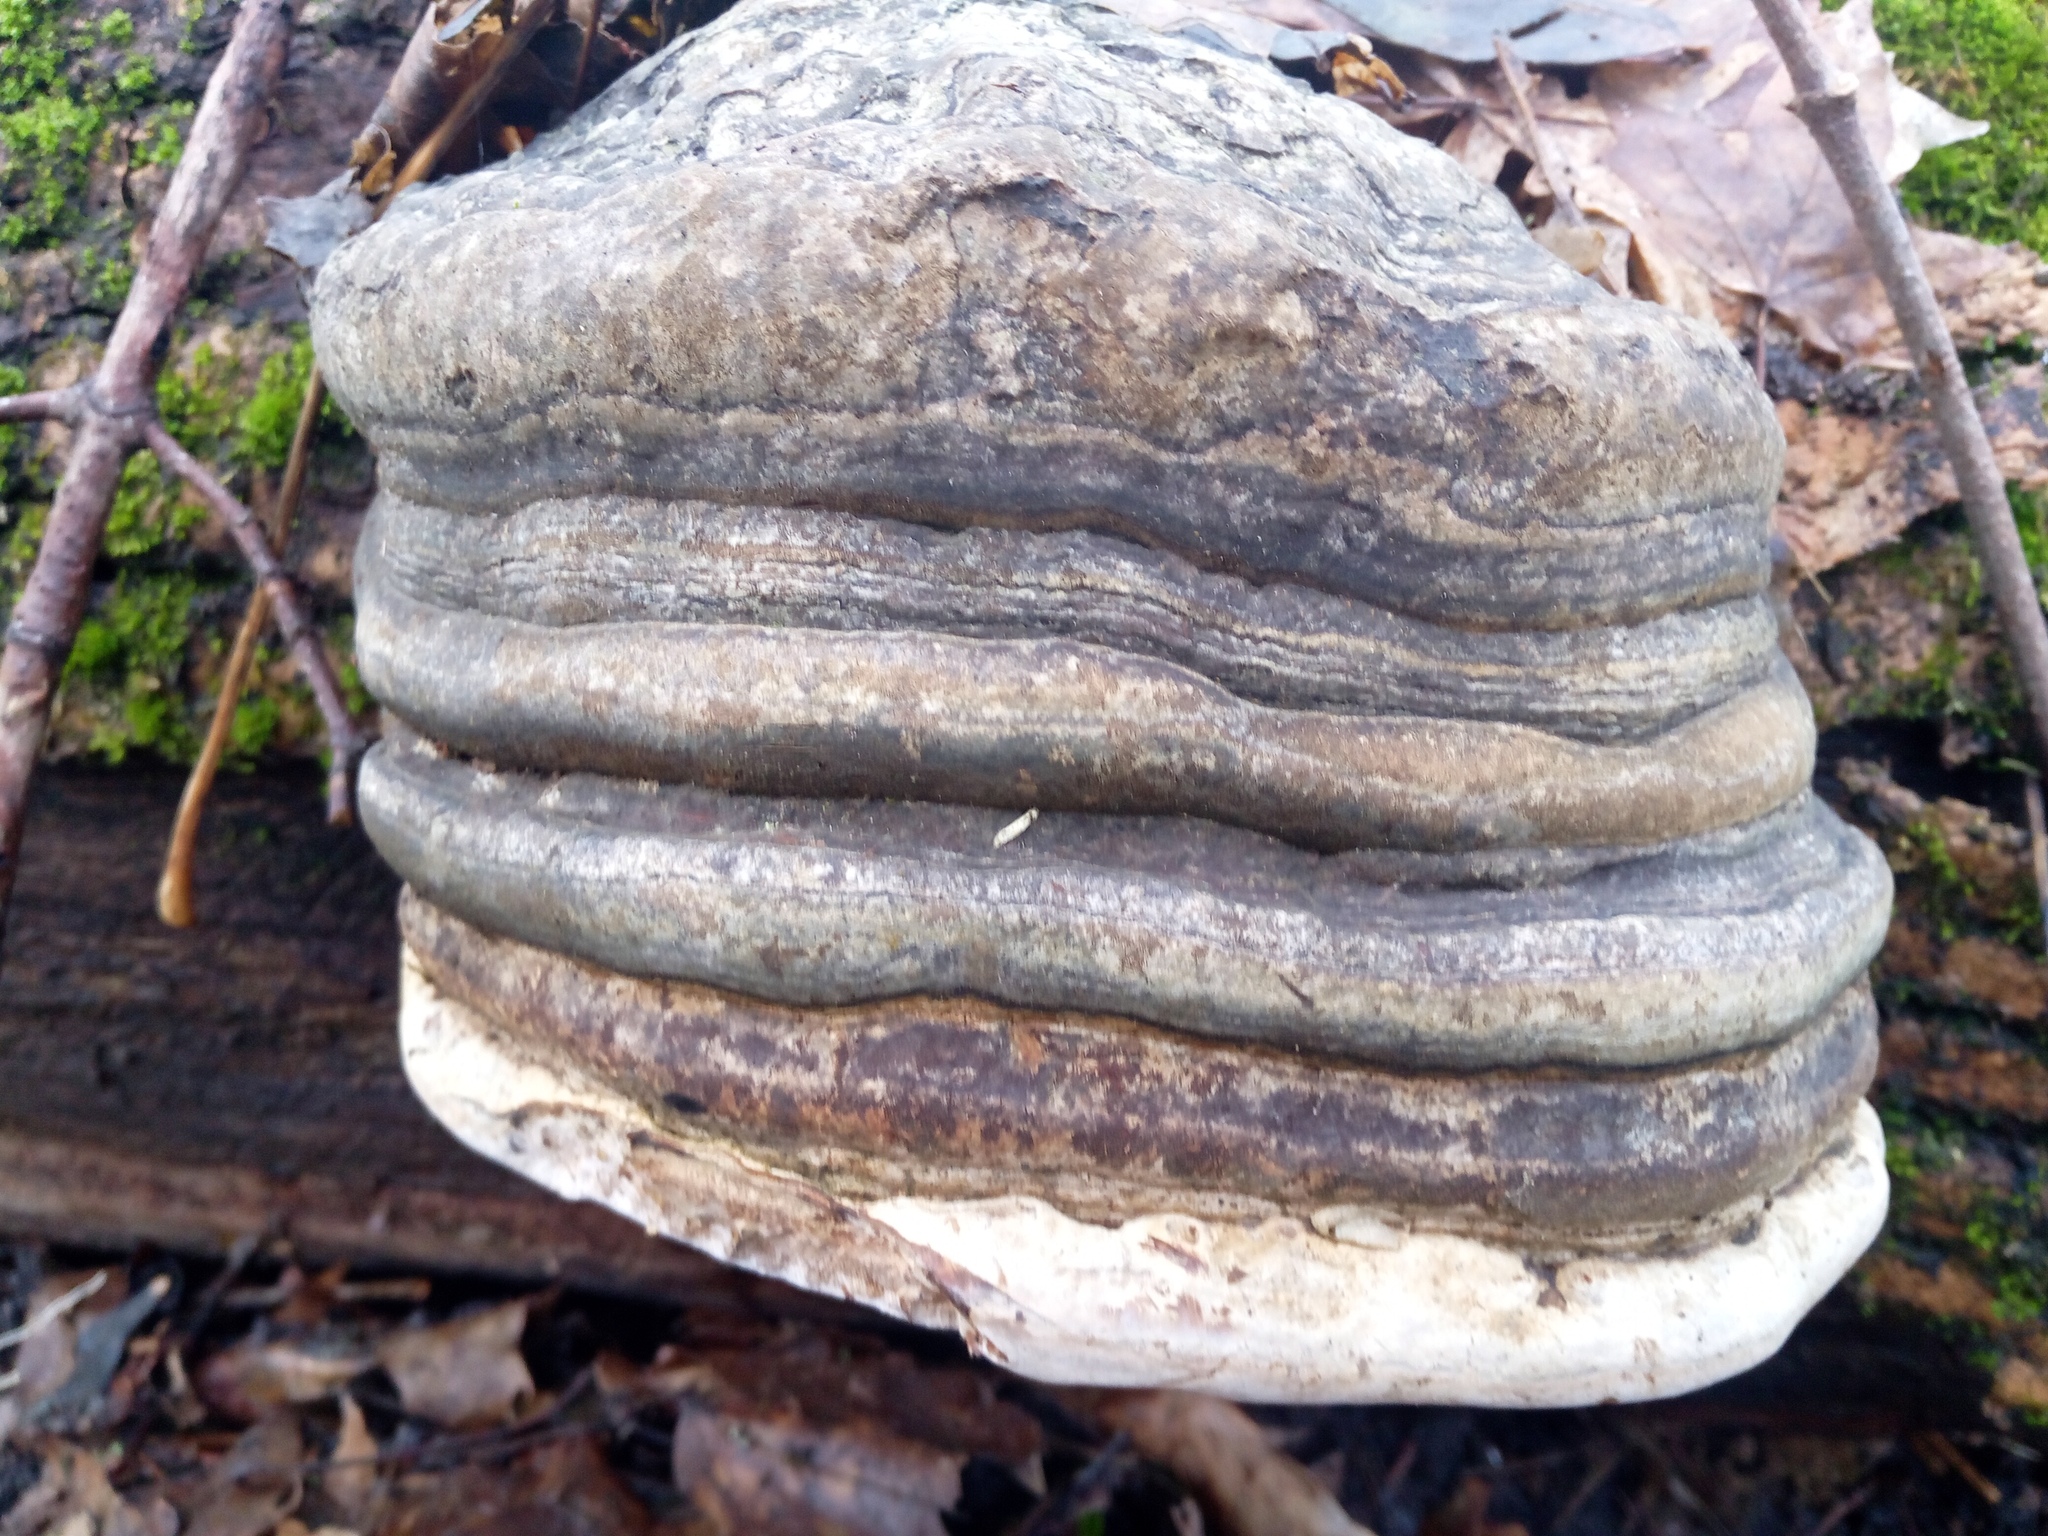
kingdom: Fungi
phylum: Basidiomycota
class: Agaricomycetes
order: Polyporales
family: Polyporaceae
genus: Fomes
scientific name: Fomes fomentarius
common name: Hoof fungus
